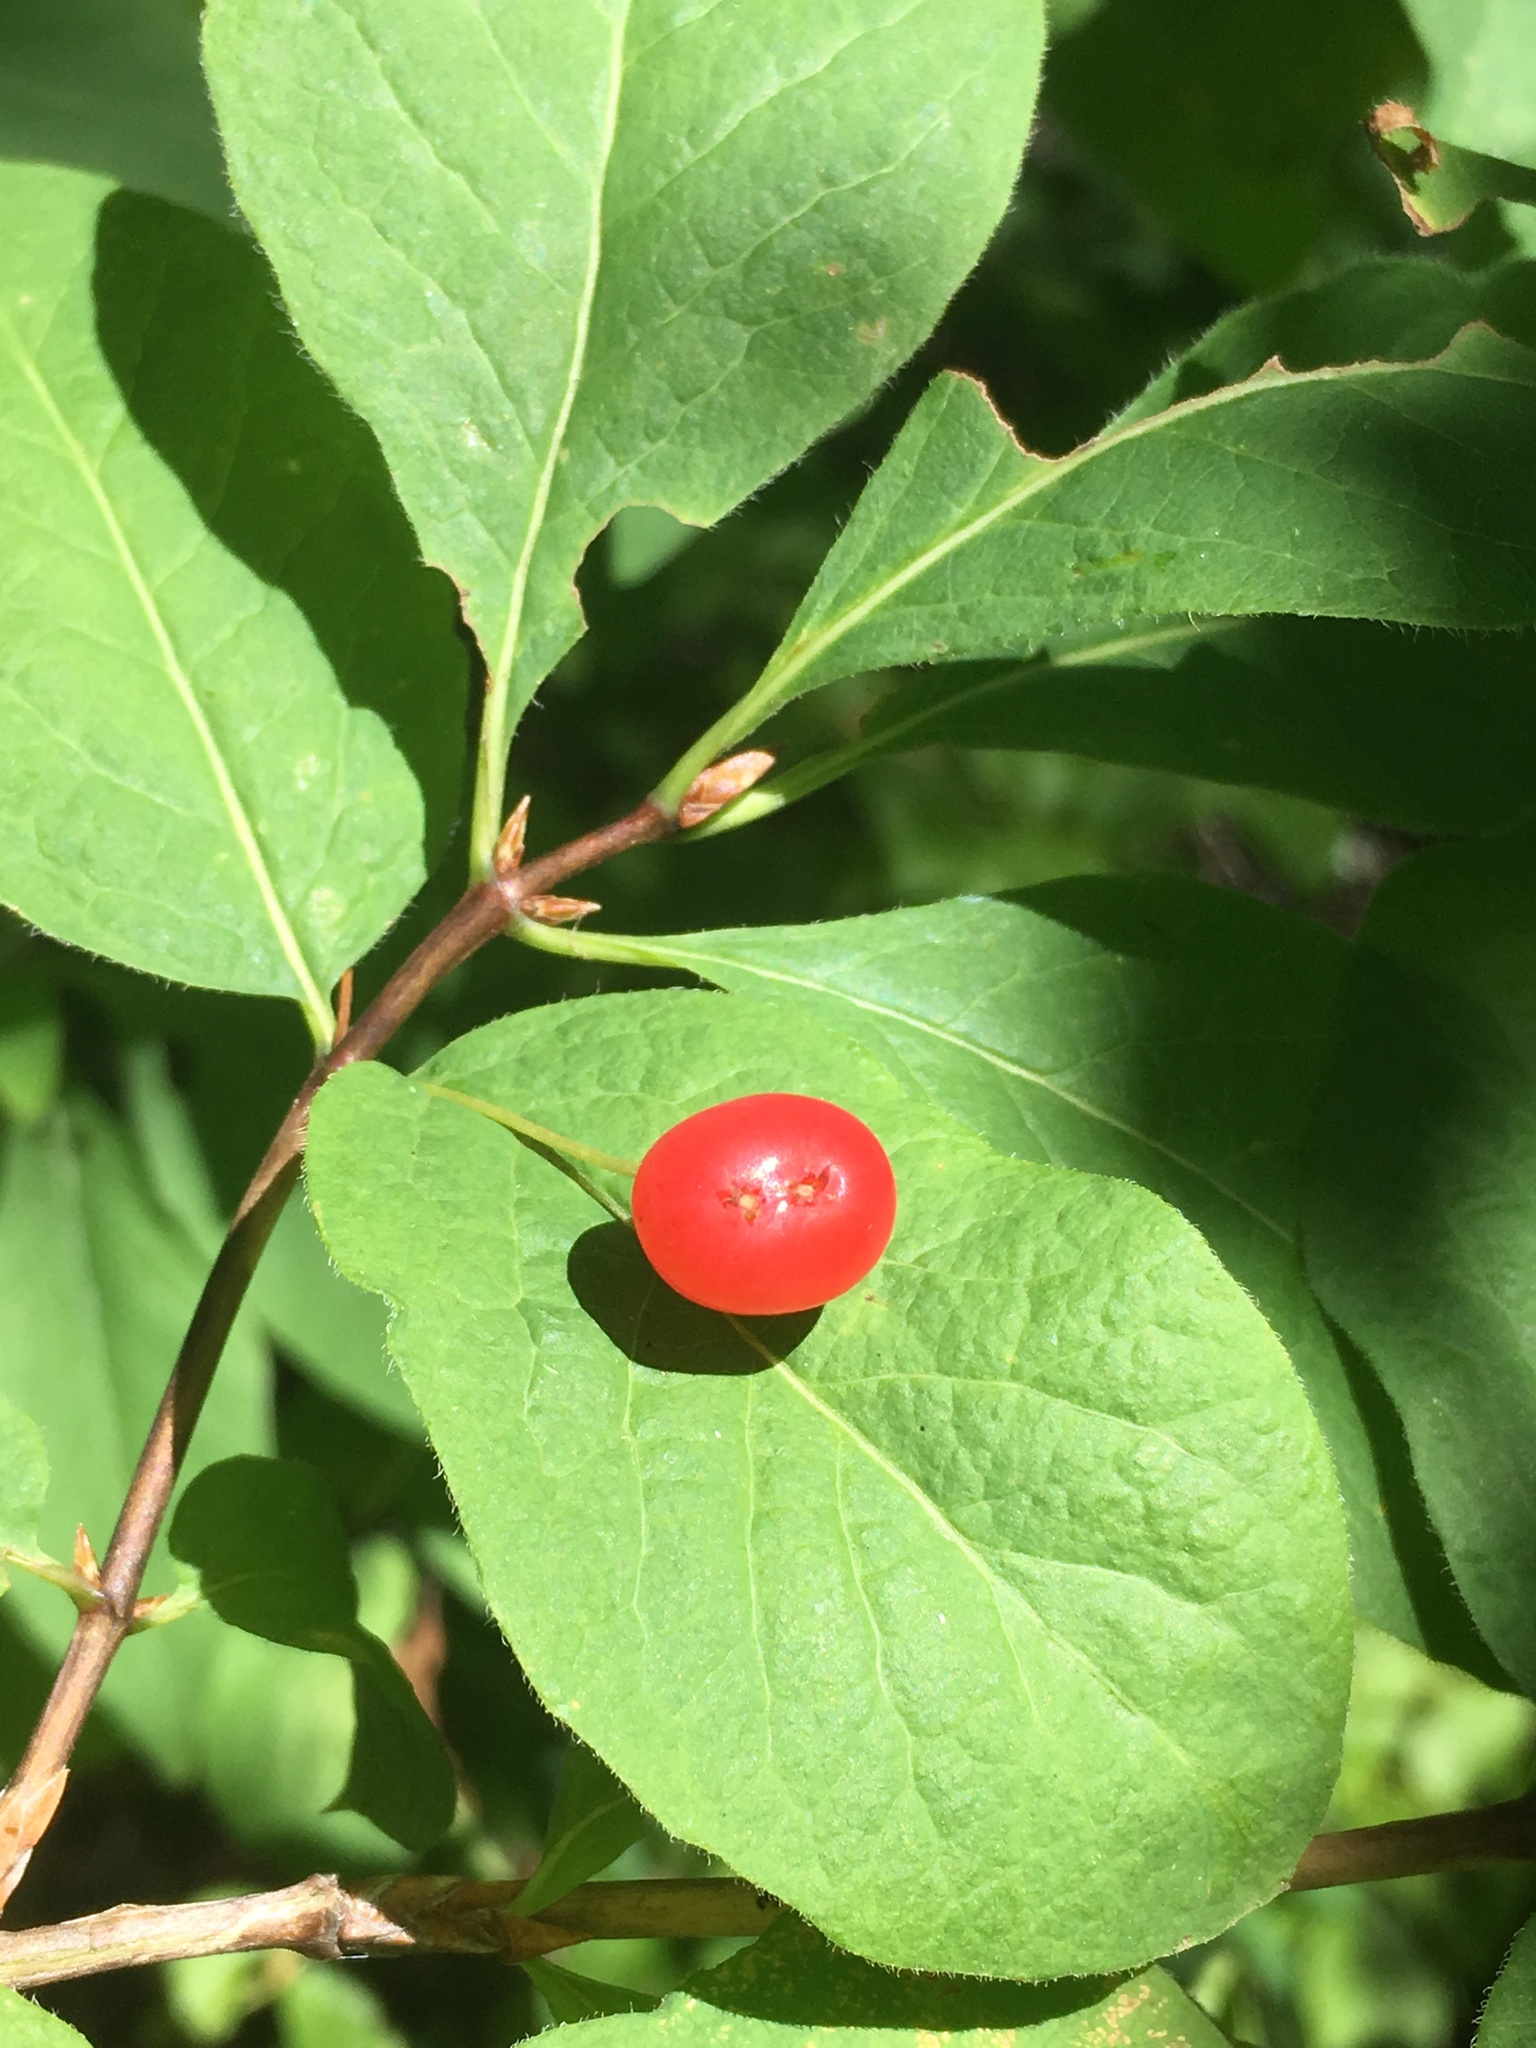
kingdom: Plantae
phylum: Tracheophyta
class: Magnoliopsida
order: Dipsacales
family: Caprifoliaceae
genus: Lonicera
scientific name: Lonicera conjugialis
